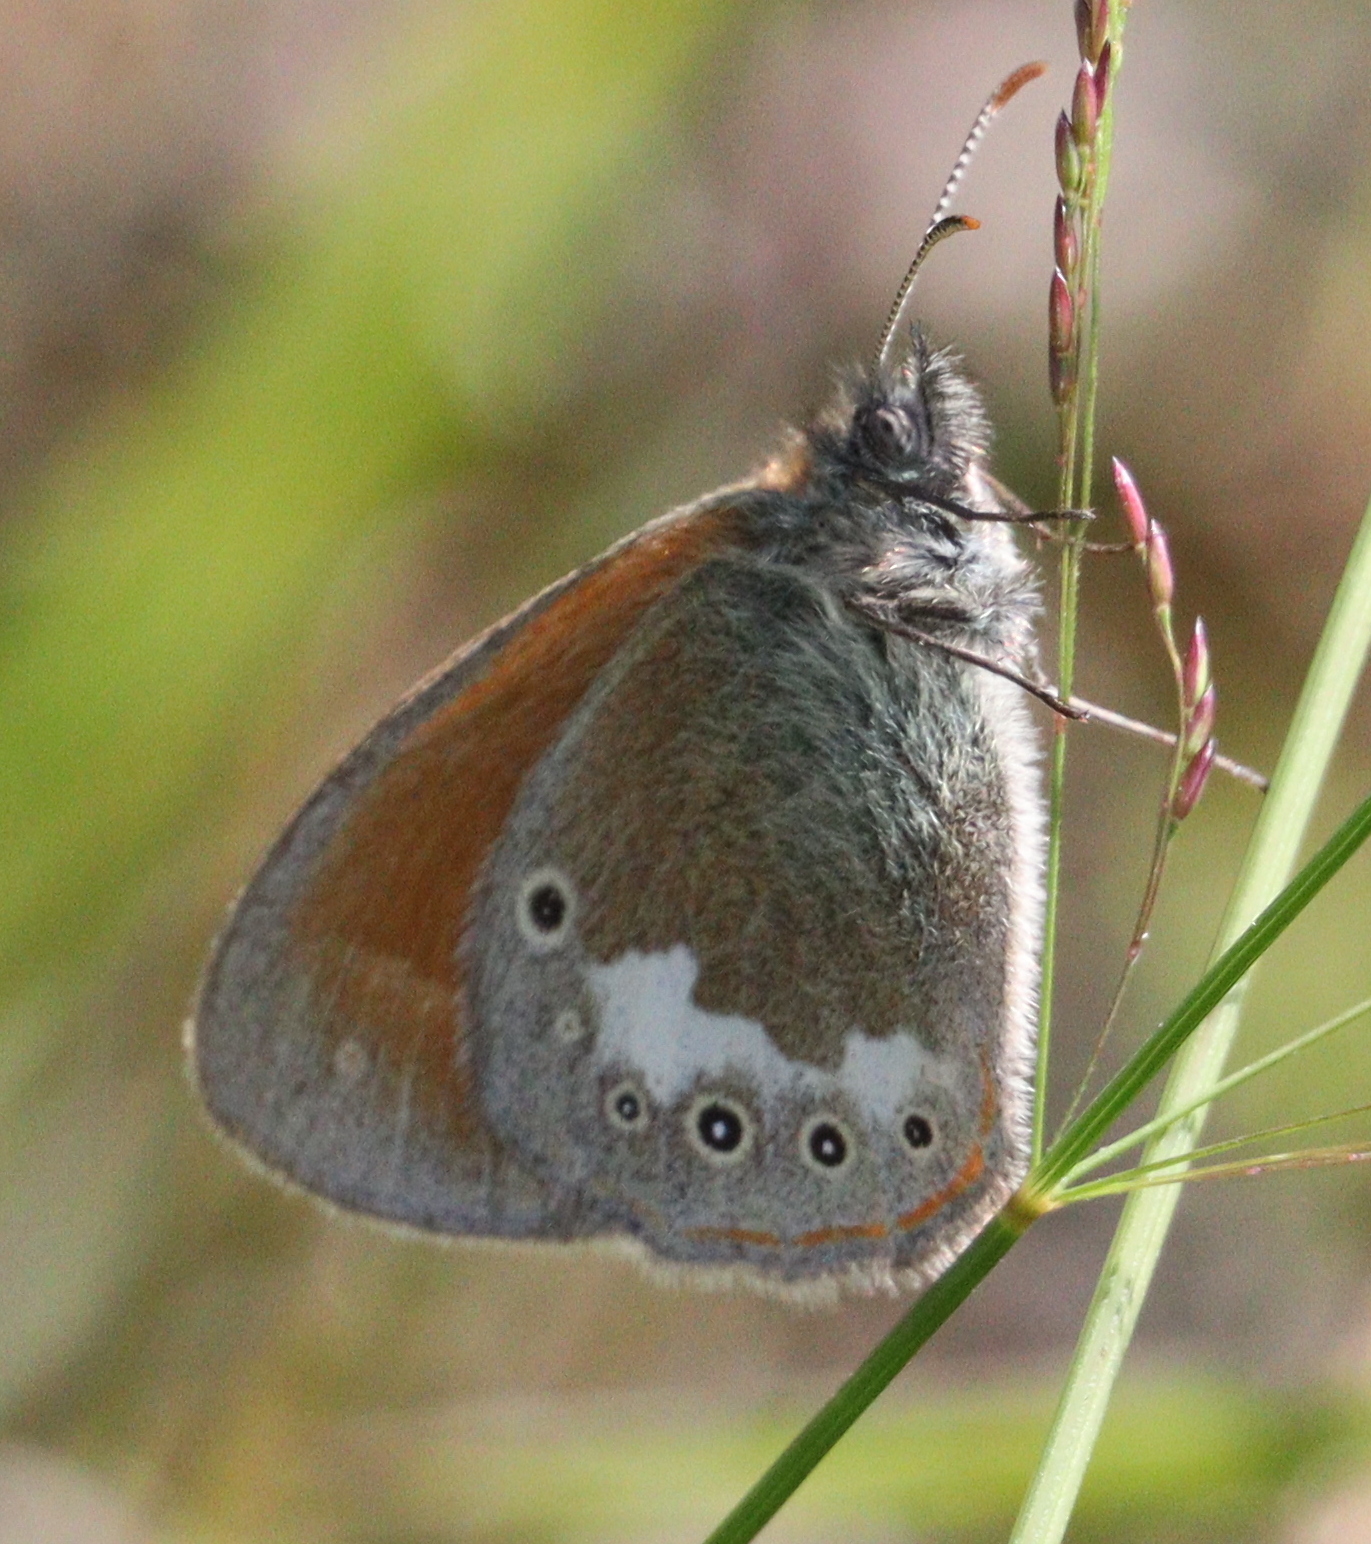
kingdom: Animalia
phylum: Arthropoda
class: Insecta
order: Lepidoptera
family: Nymphalidae
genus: Coenonympha
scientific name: Coenonympha iphis
